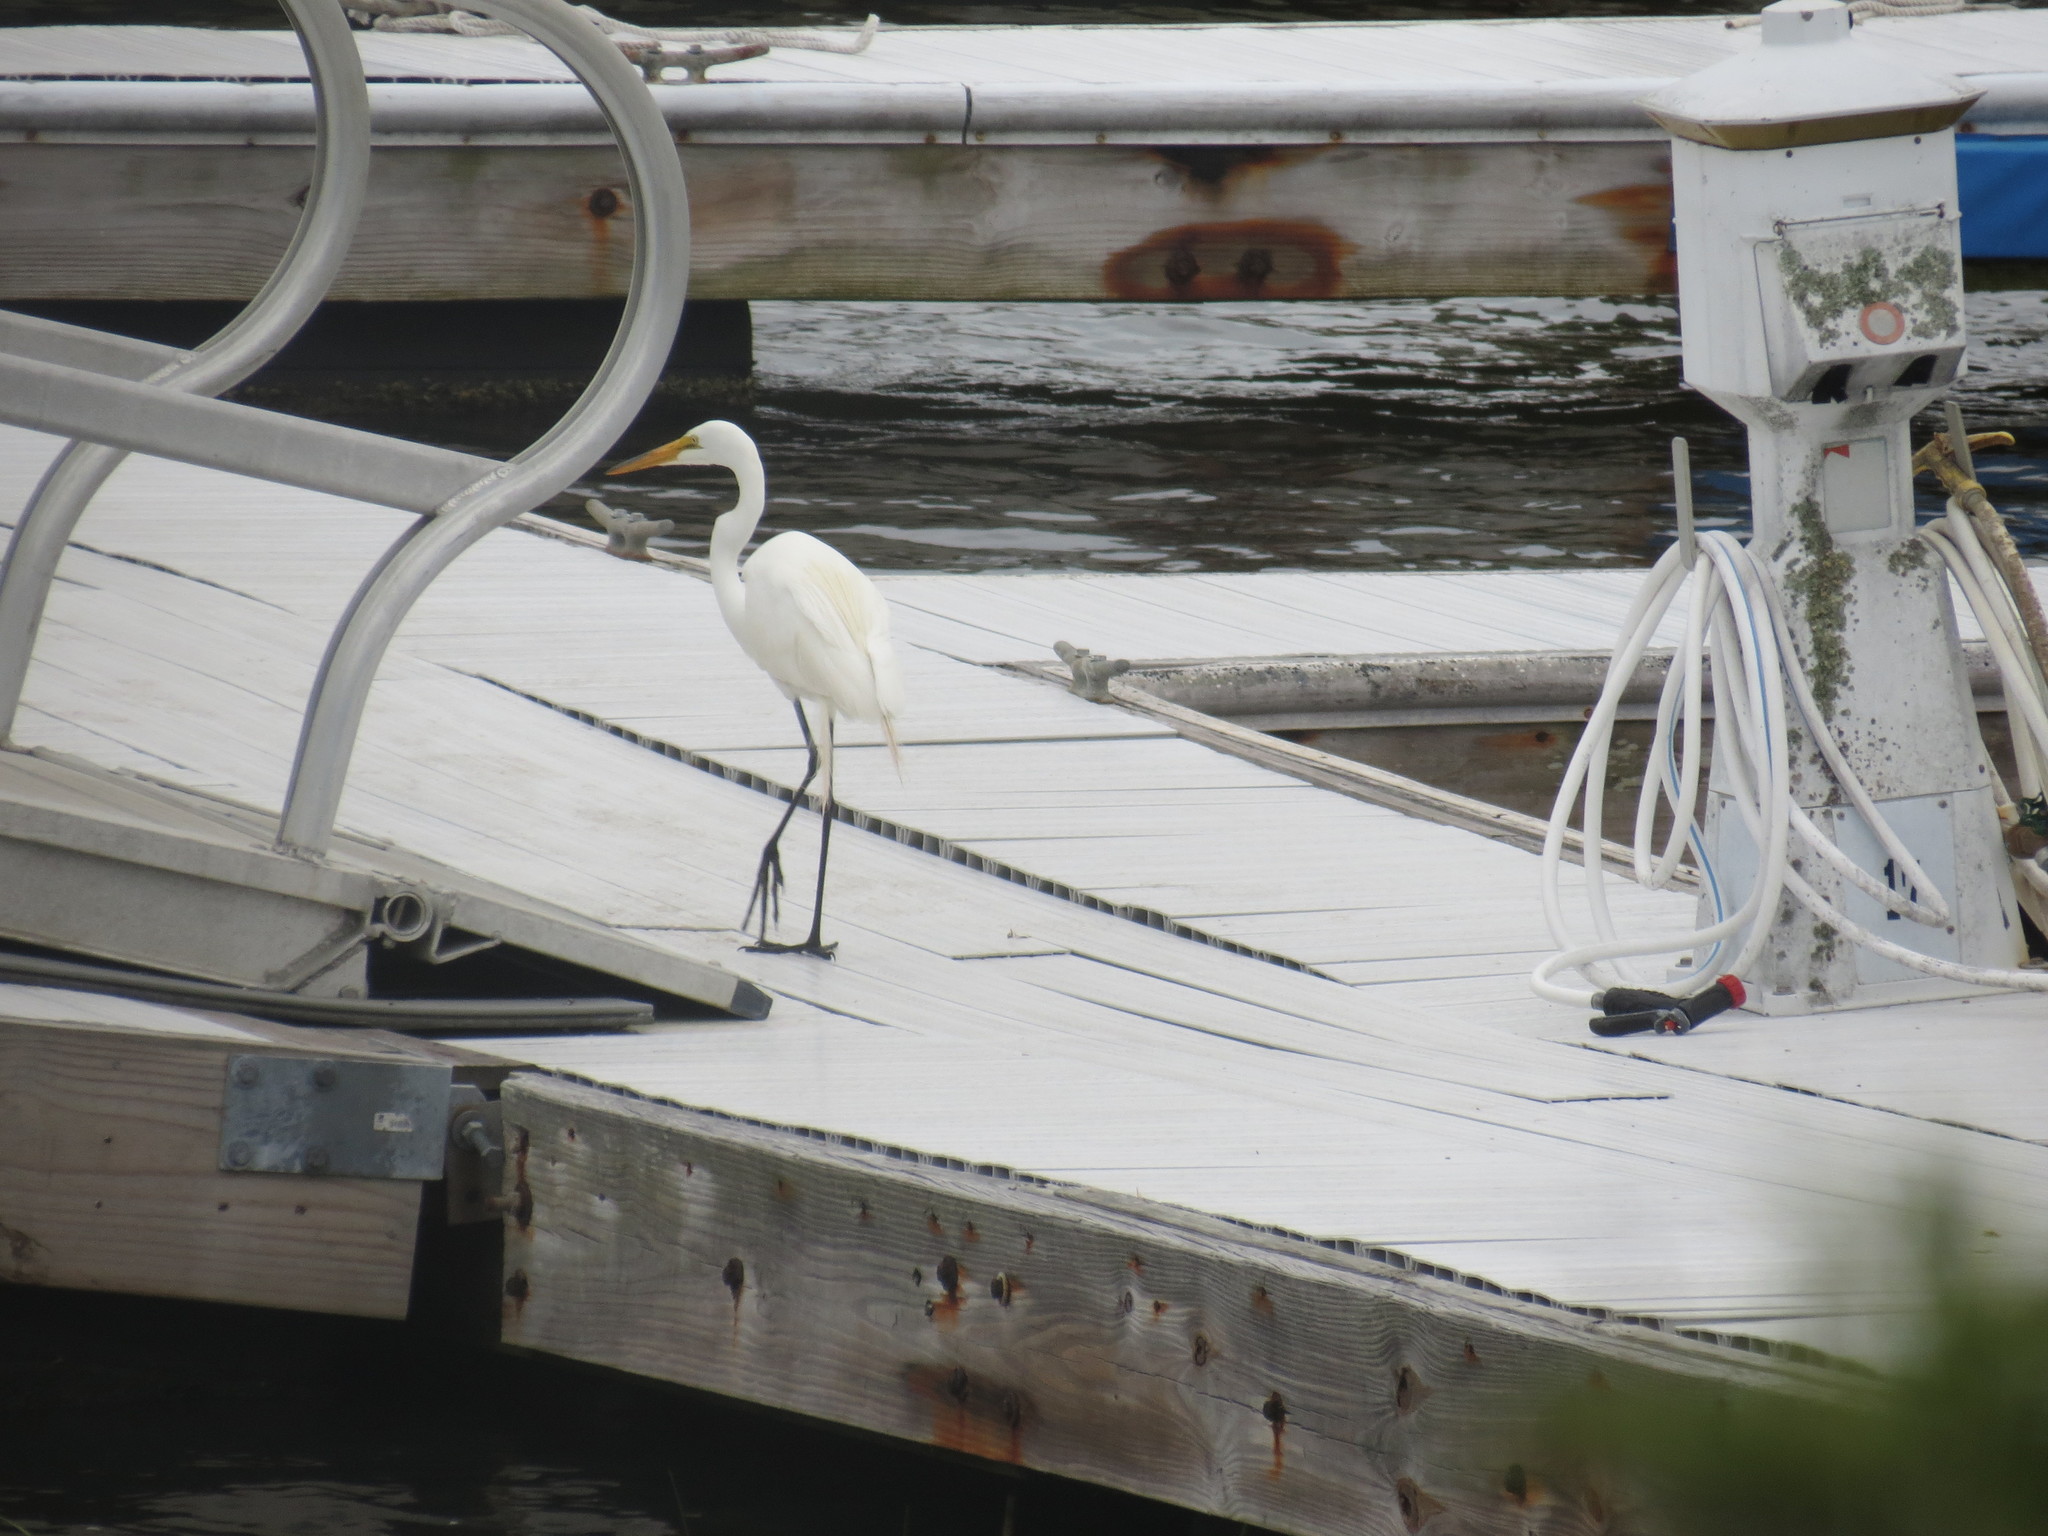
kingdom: Animalia
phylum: Chordata
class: Aves
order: Pelecaniformes
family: Ardeidae
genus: Ardea
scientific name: Ardea alba
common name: Great egret
